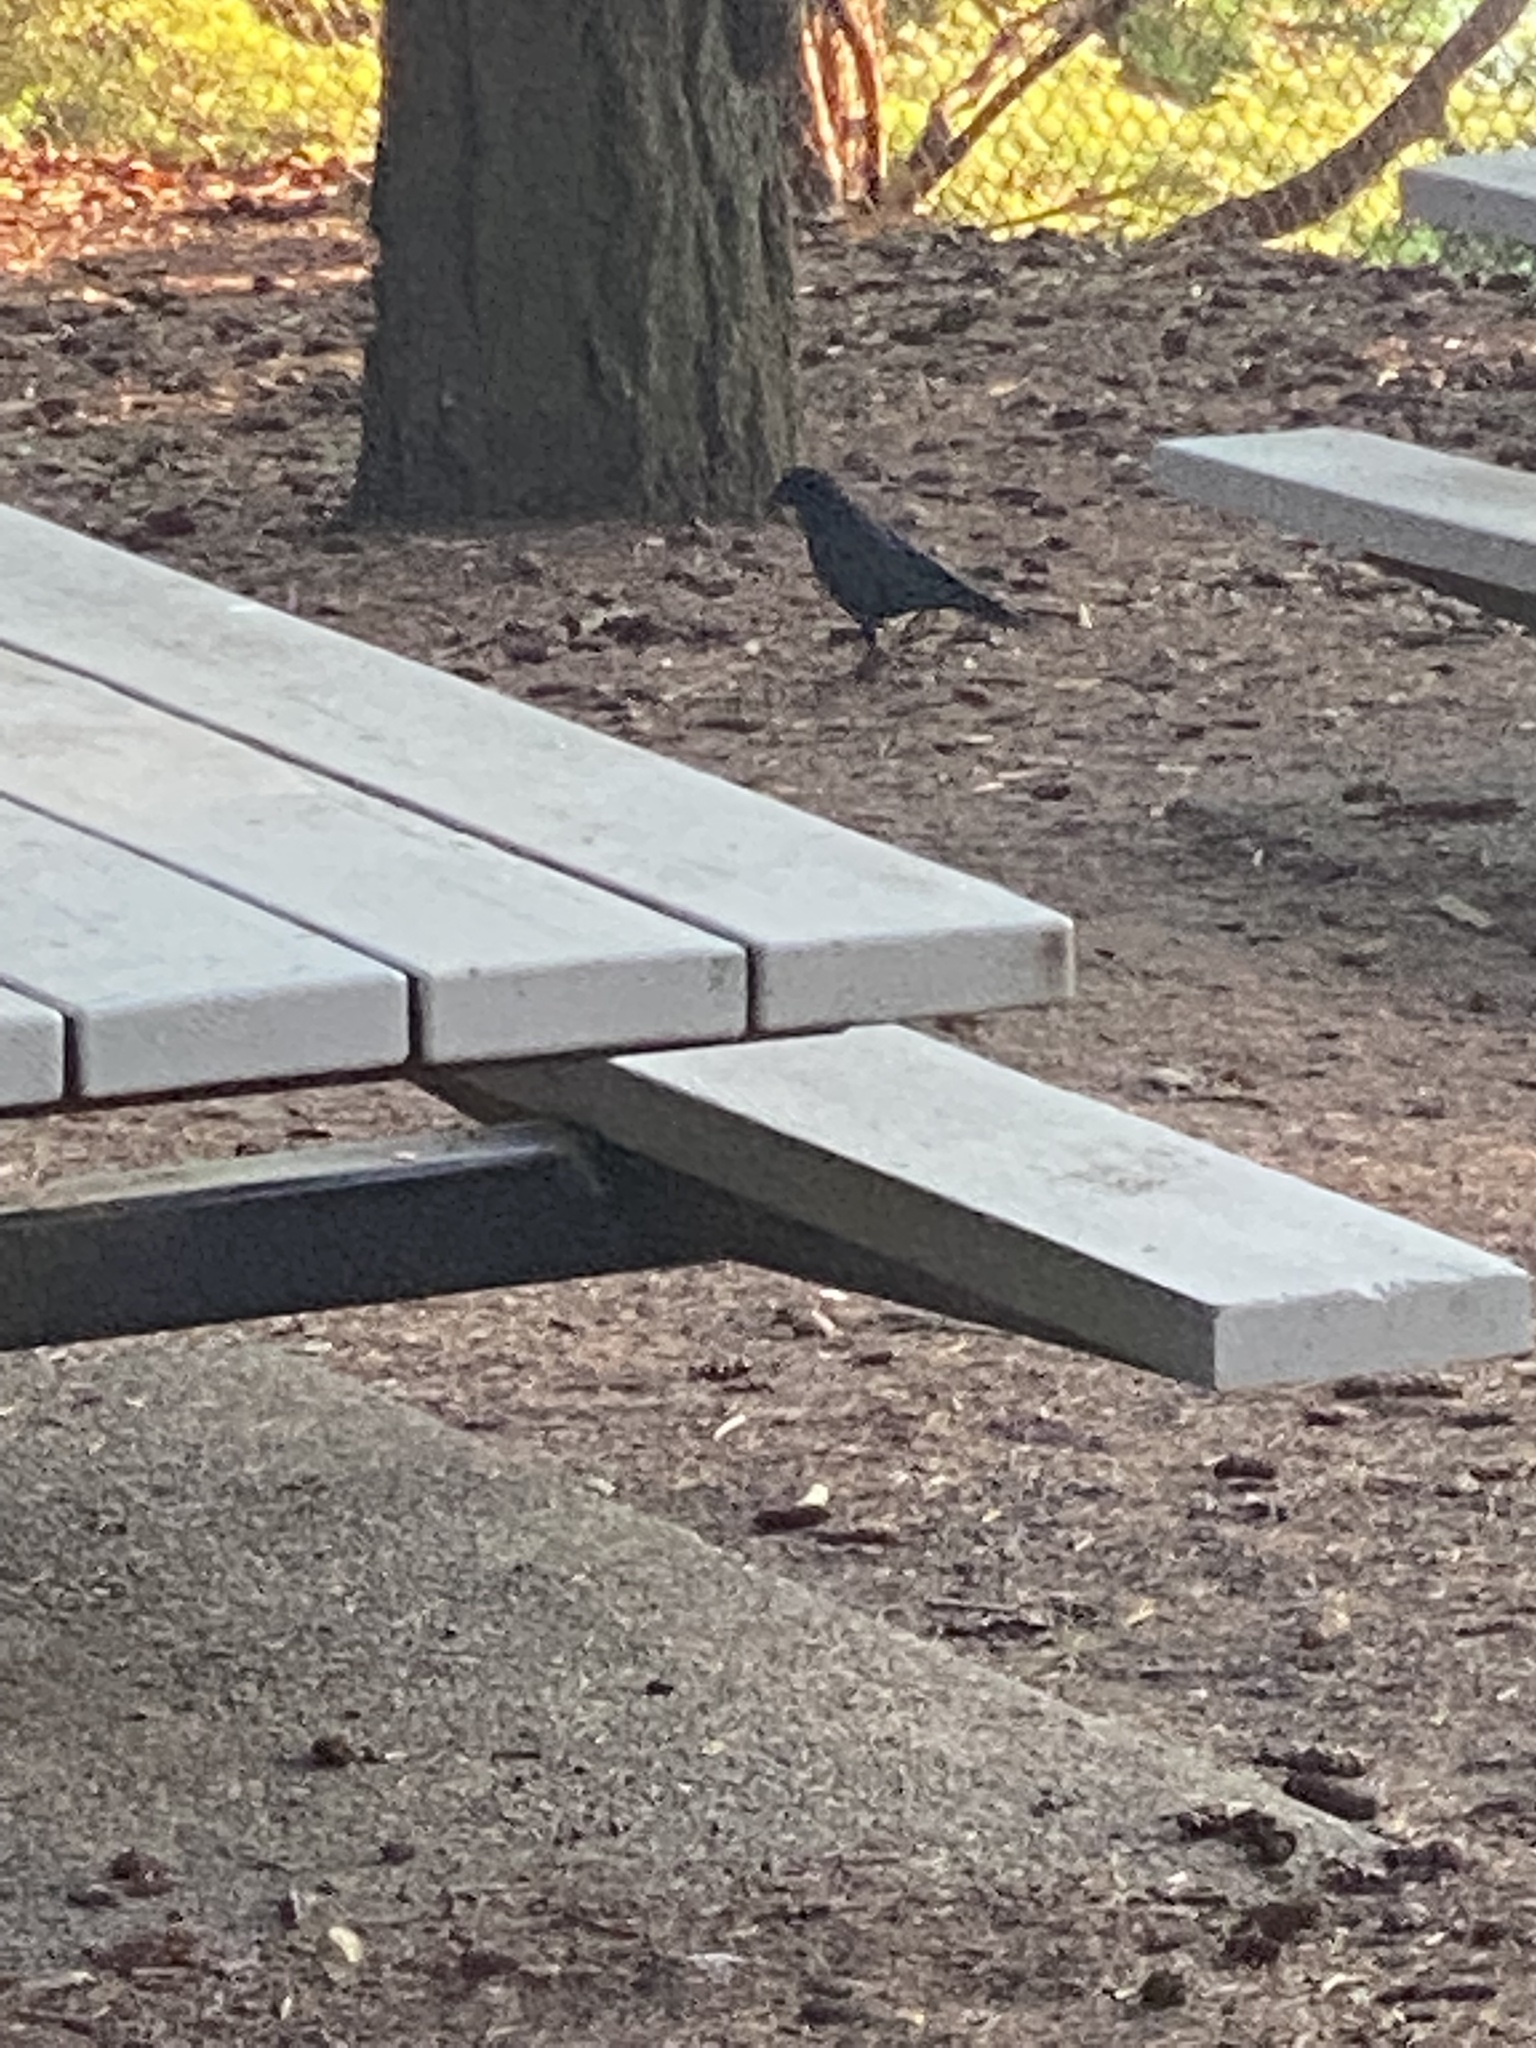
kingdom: Animalia
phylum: Chordata
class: Aves
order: Passeriformes
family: Corvidae
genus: Corvus
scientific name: Corvus brachyrhynchos
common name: American crow
